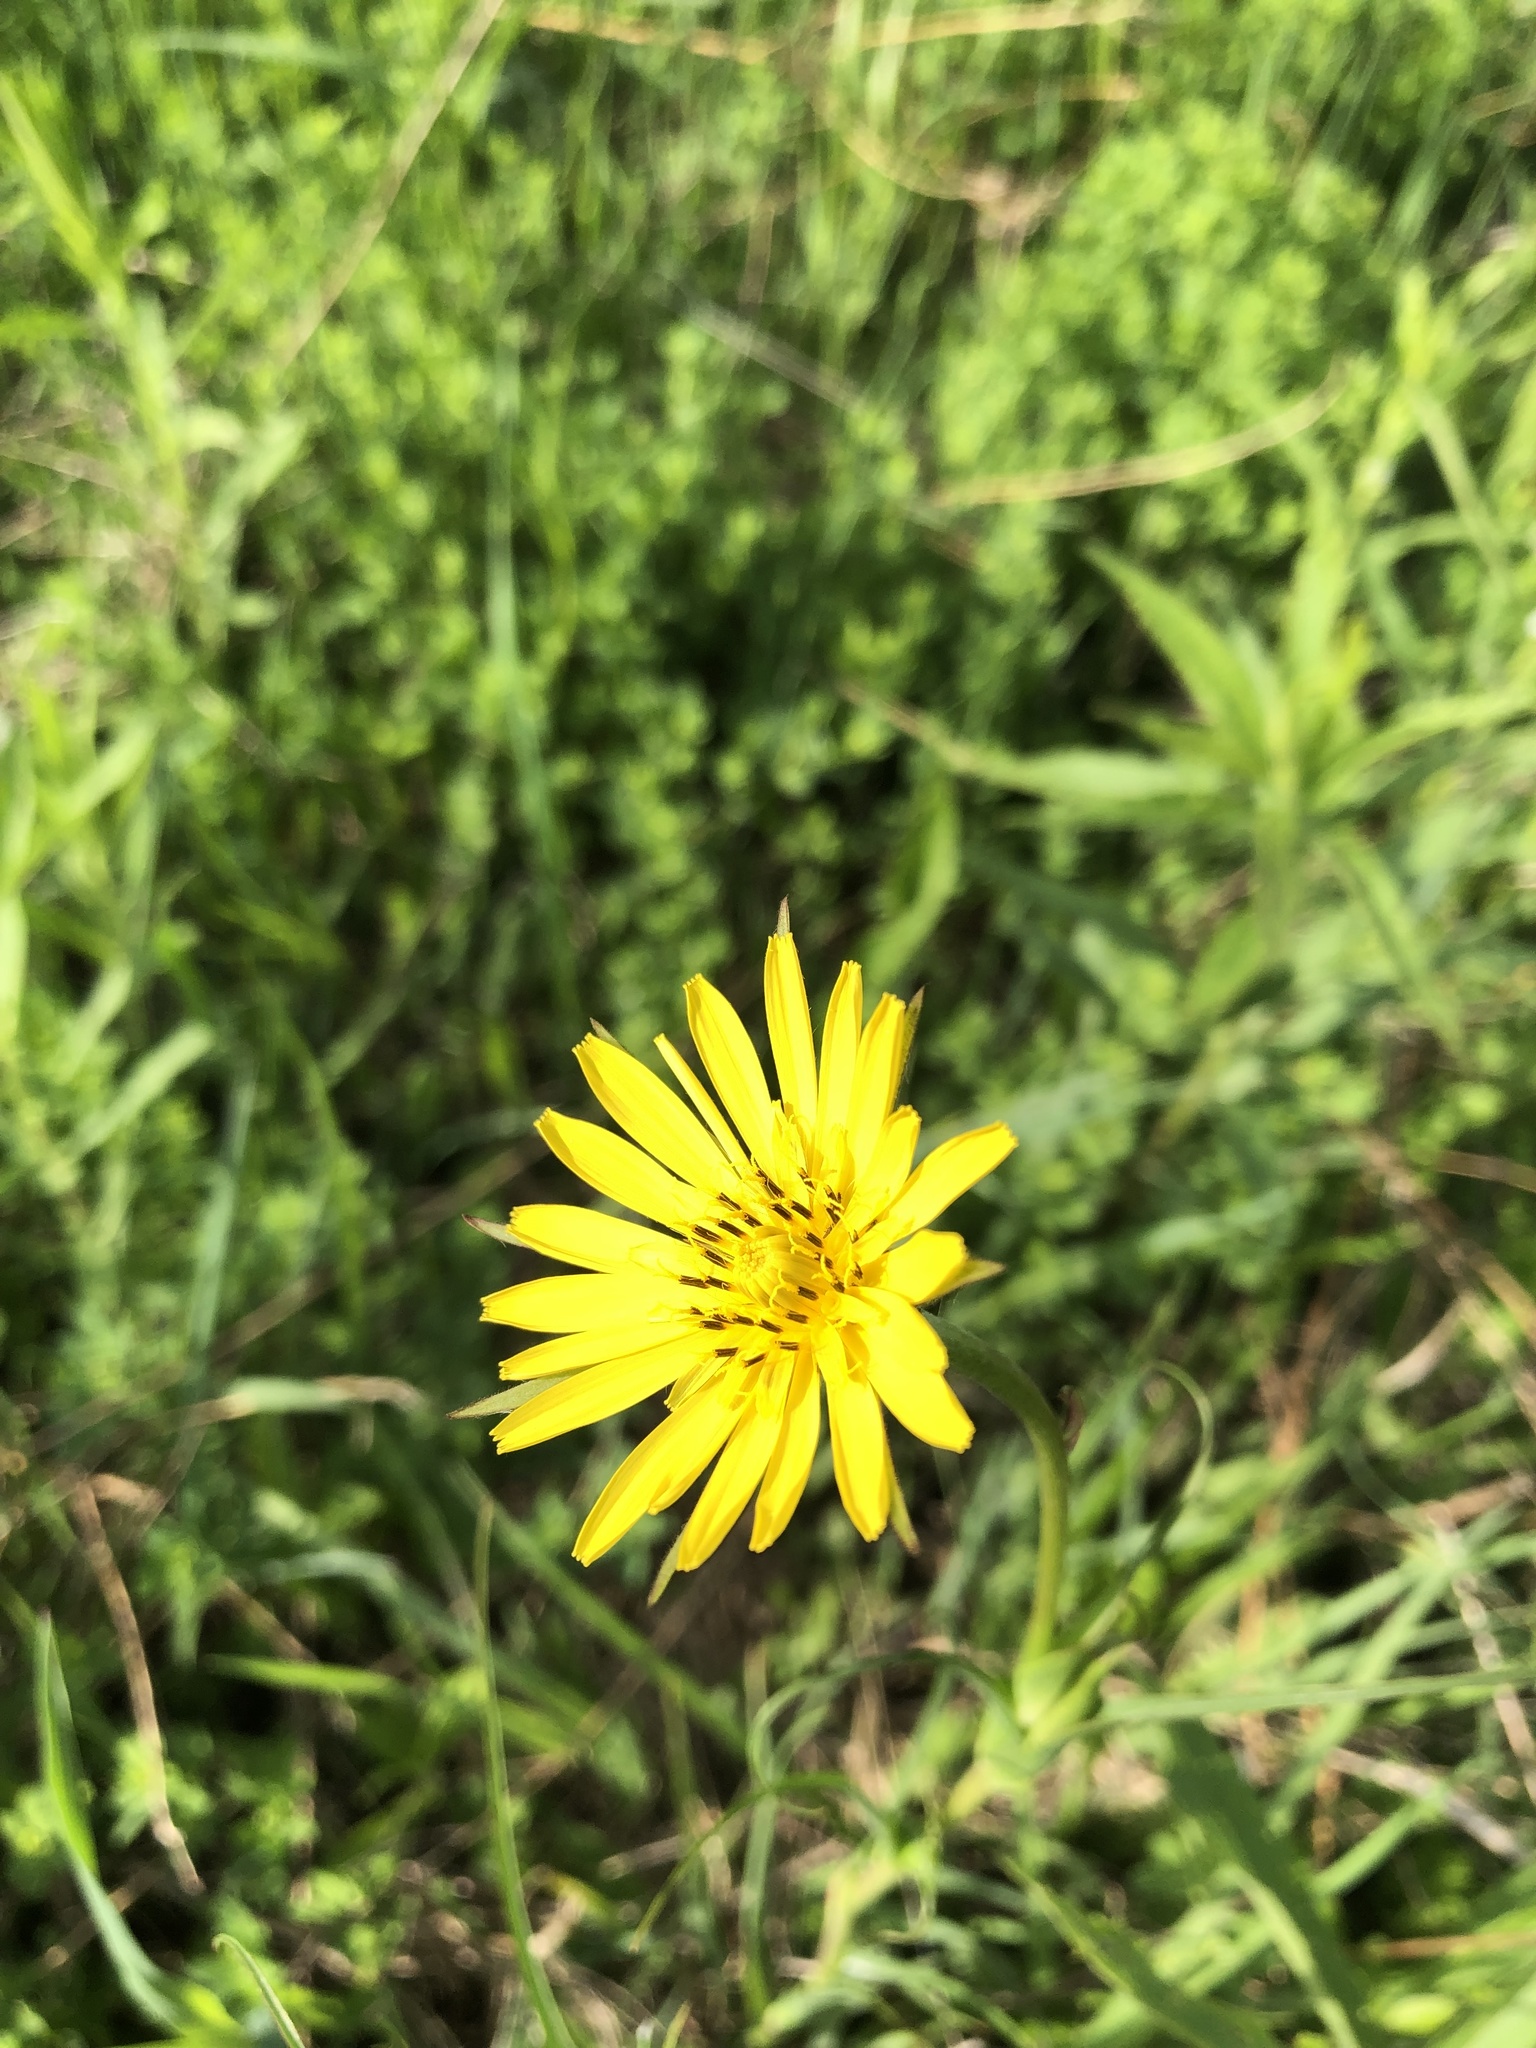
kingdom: Plantae
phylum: Tracheophyta
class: Magnoliopsida
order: Asterales
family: Asteraceae
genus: Tragopogon
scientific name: Tragopogon pratensis
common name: Goat's-beard
